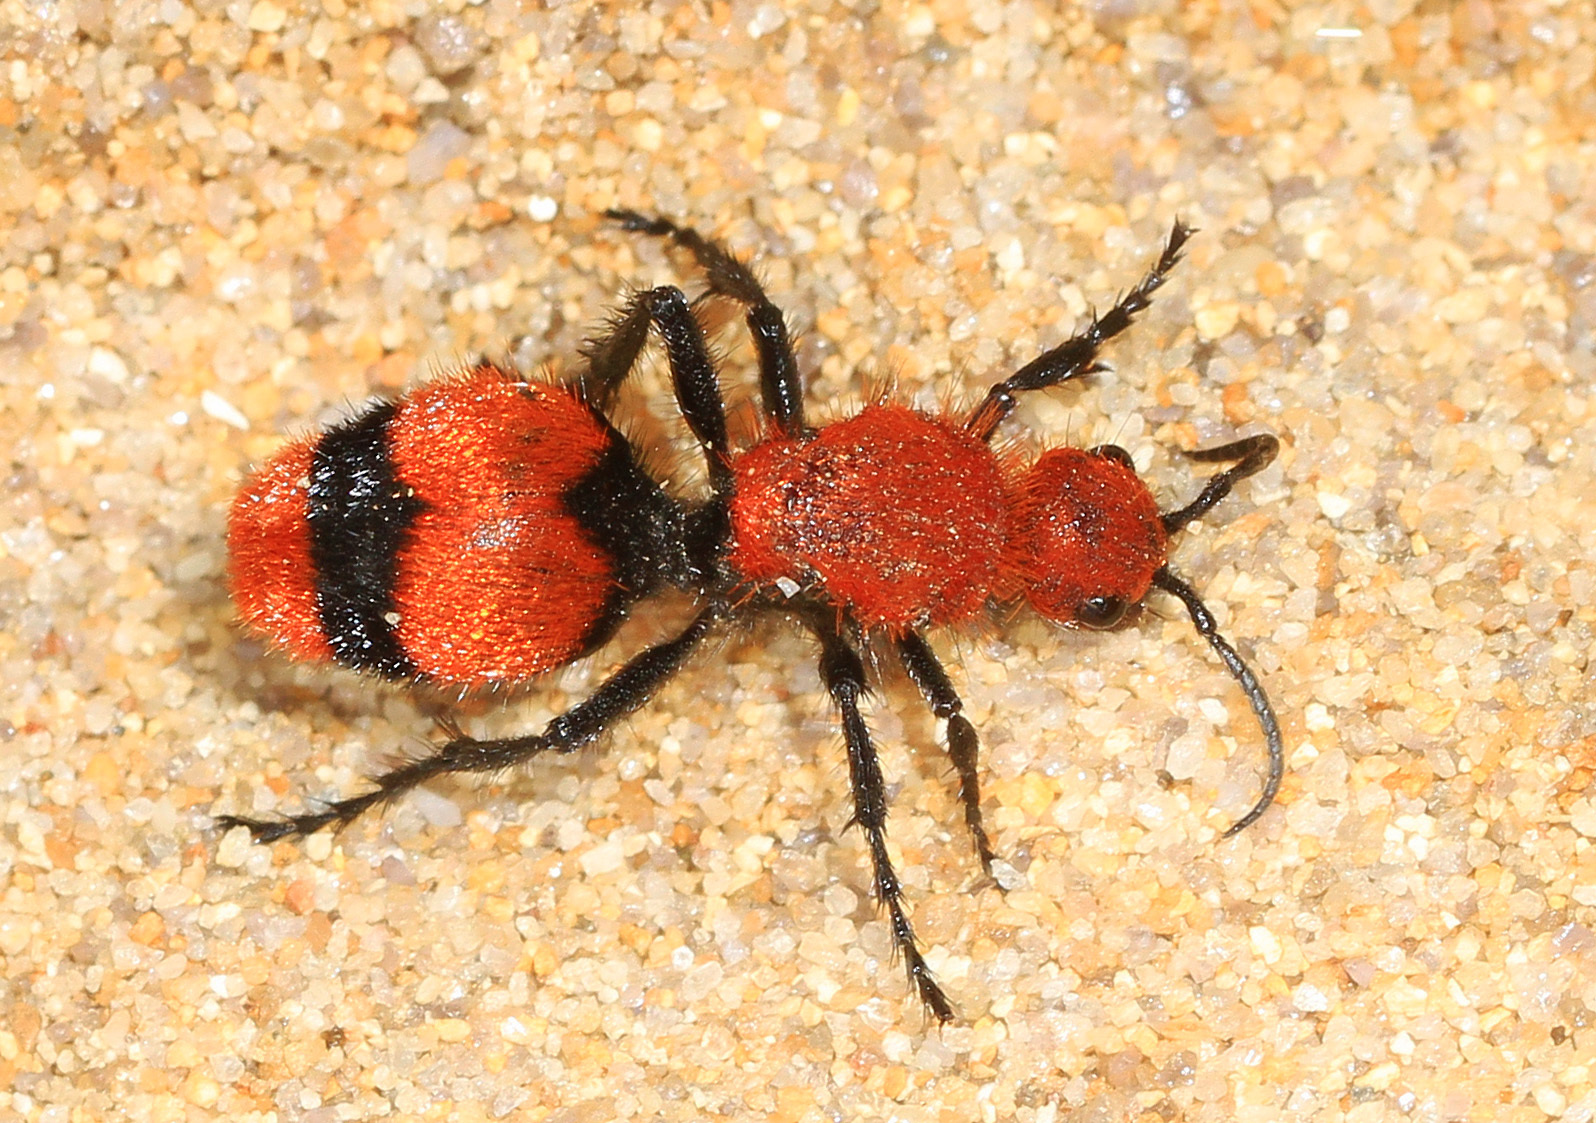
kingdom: Animalia
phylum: Arthropoda
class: Insecta
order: Hymenoptera
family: Mutillidae
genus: Dasymutilla
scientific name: Dasymutilla occidentalis
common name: Common eastern velvet ant
